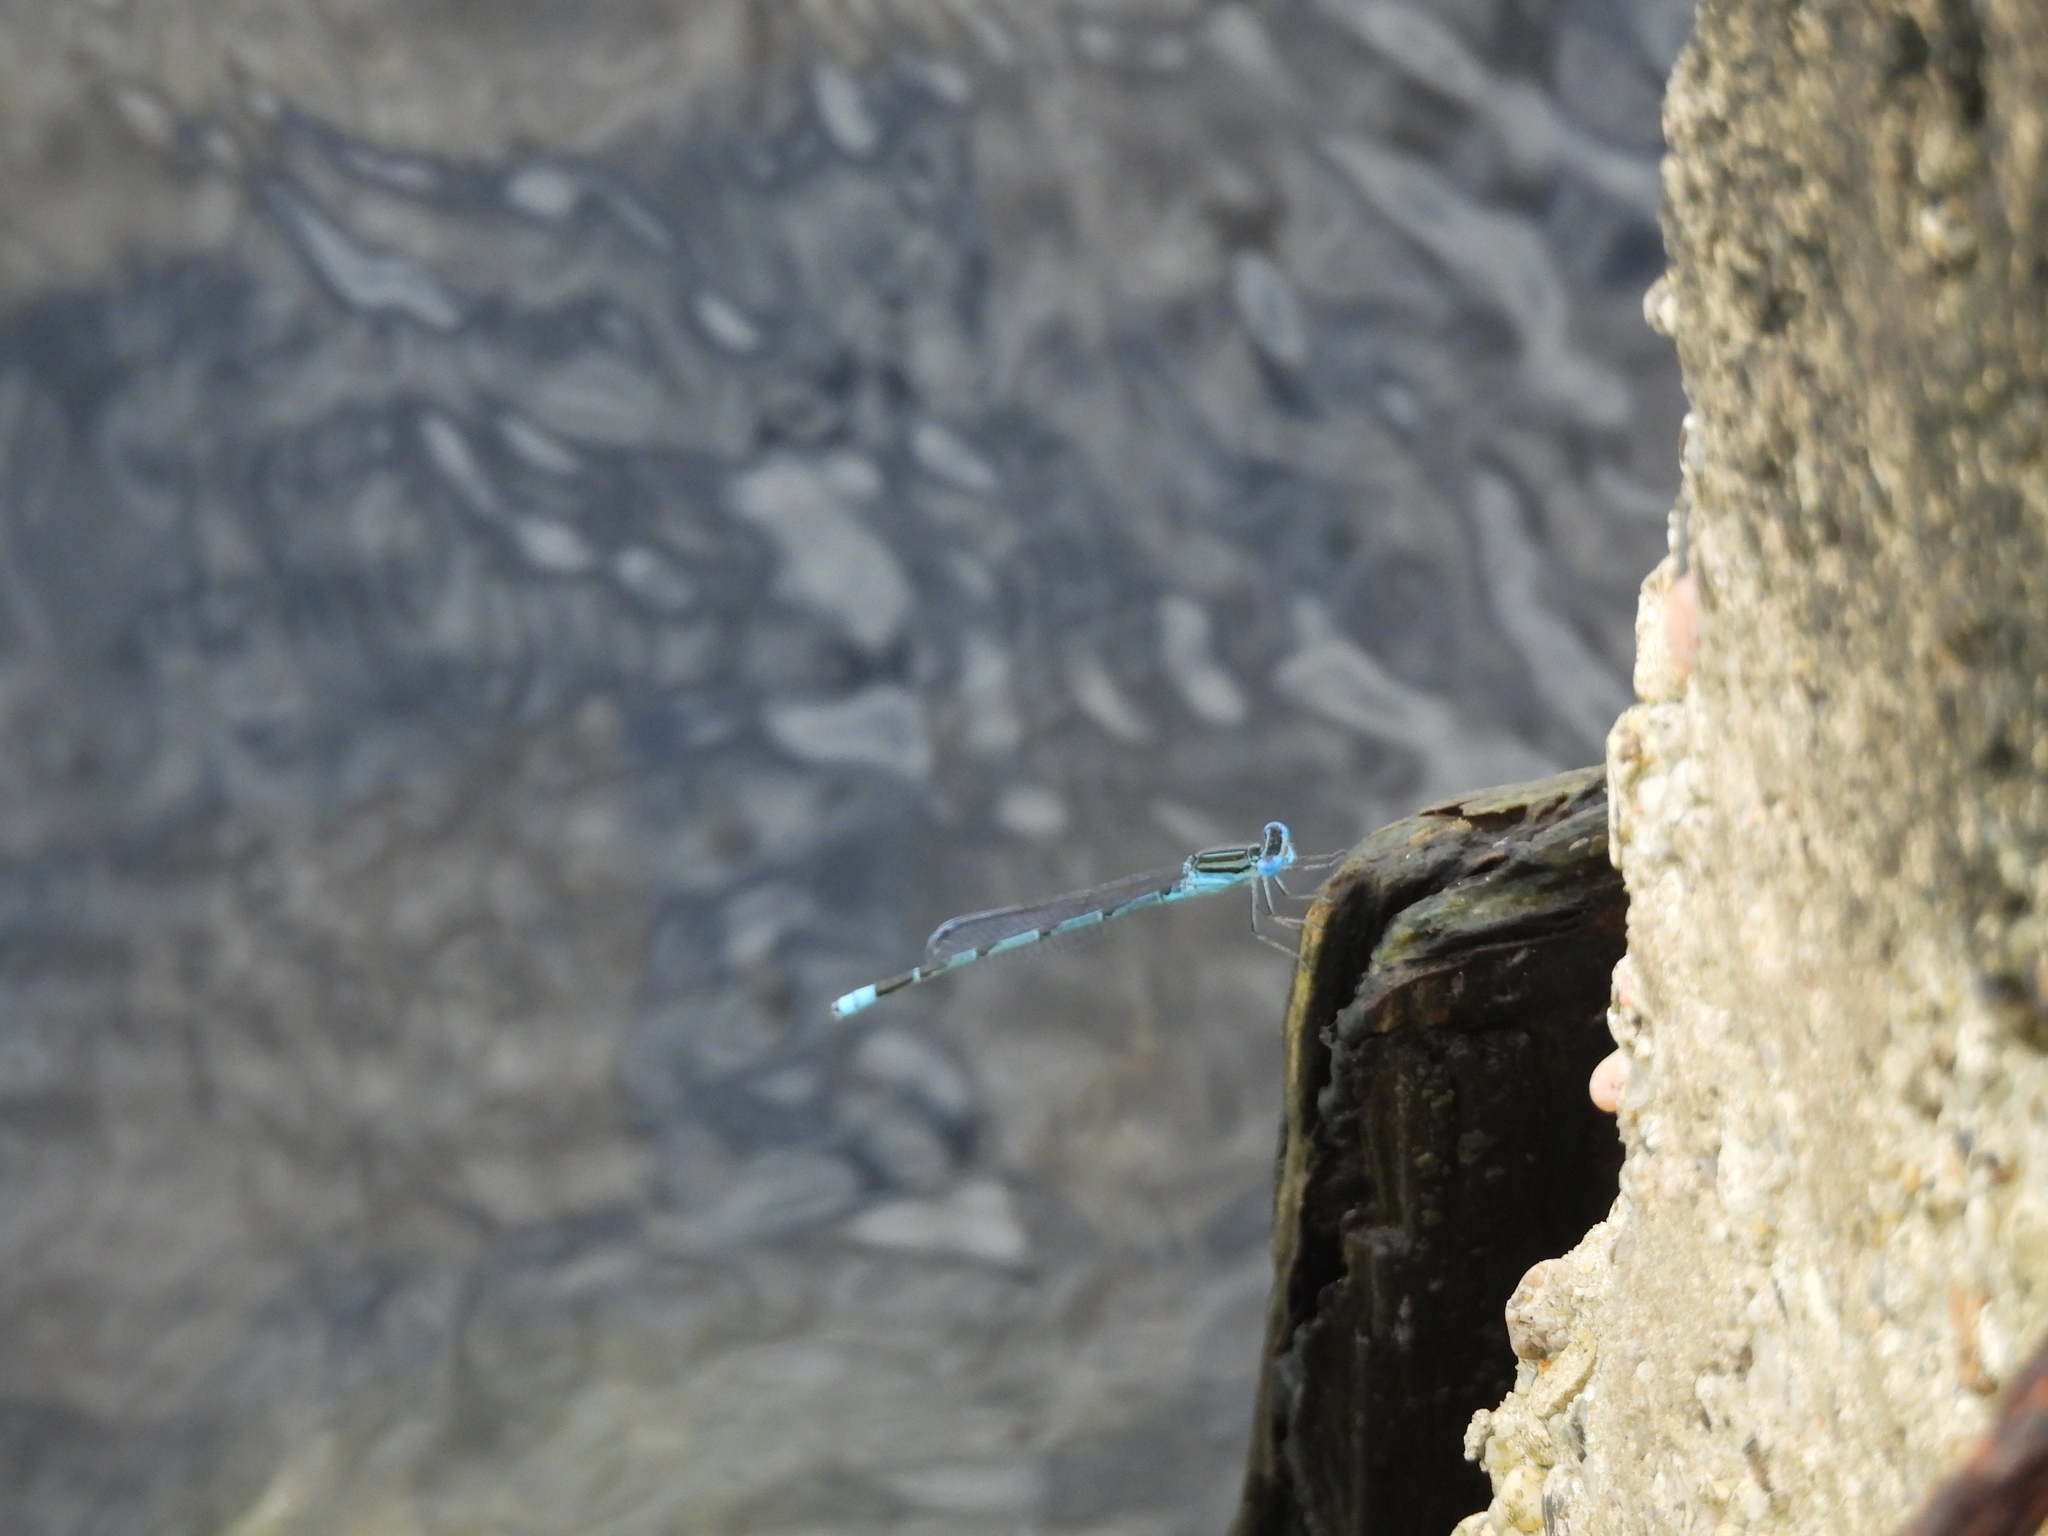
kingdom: Animalia
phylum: Arthropoda
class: Insecta
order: Odonata
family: Coenagrionidae
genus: Enallagma
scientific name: Enallagma durum
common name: Big bluet
